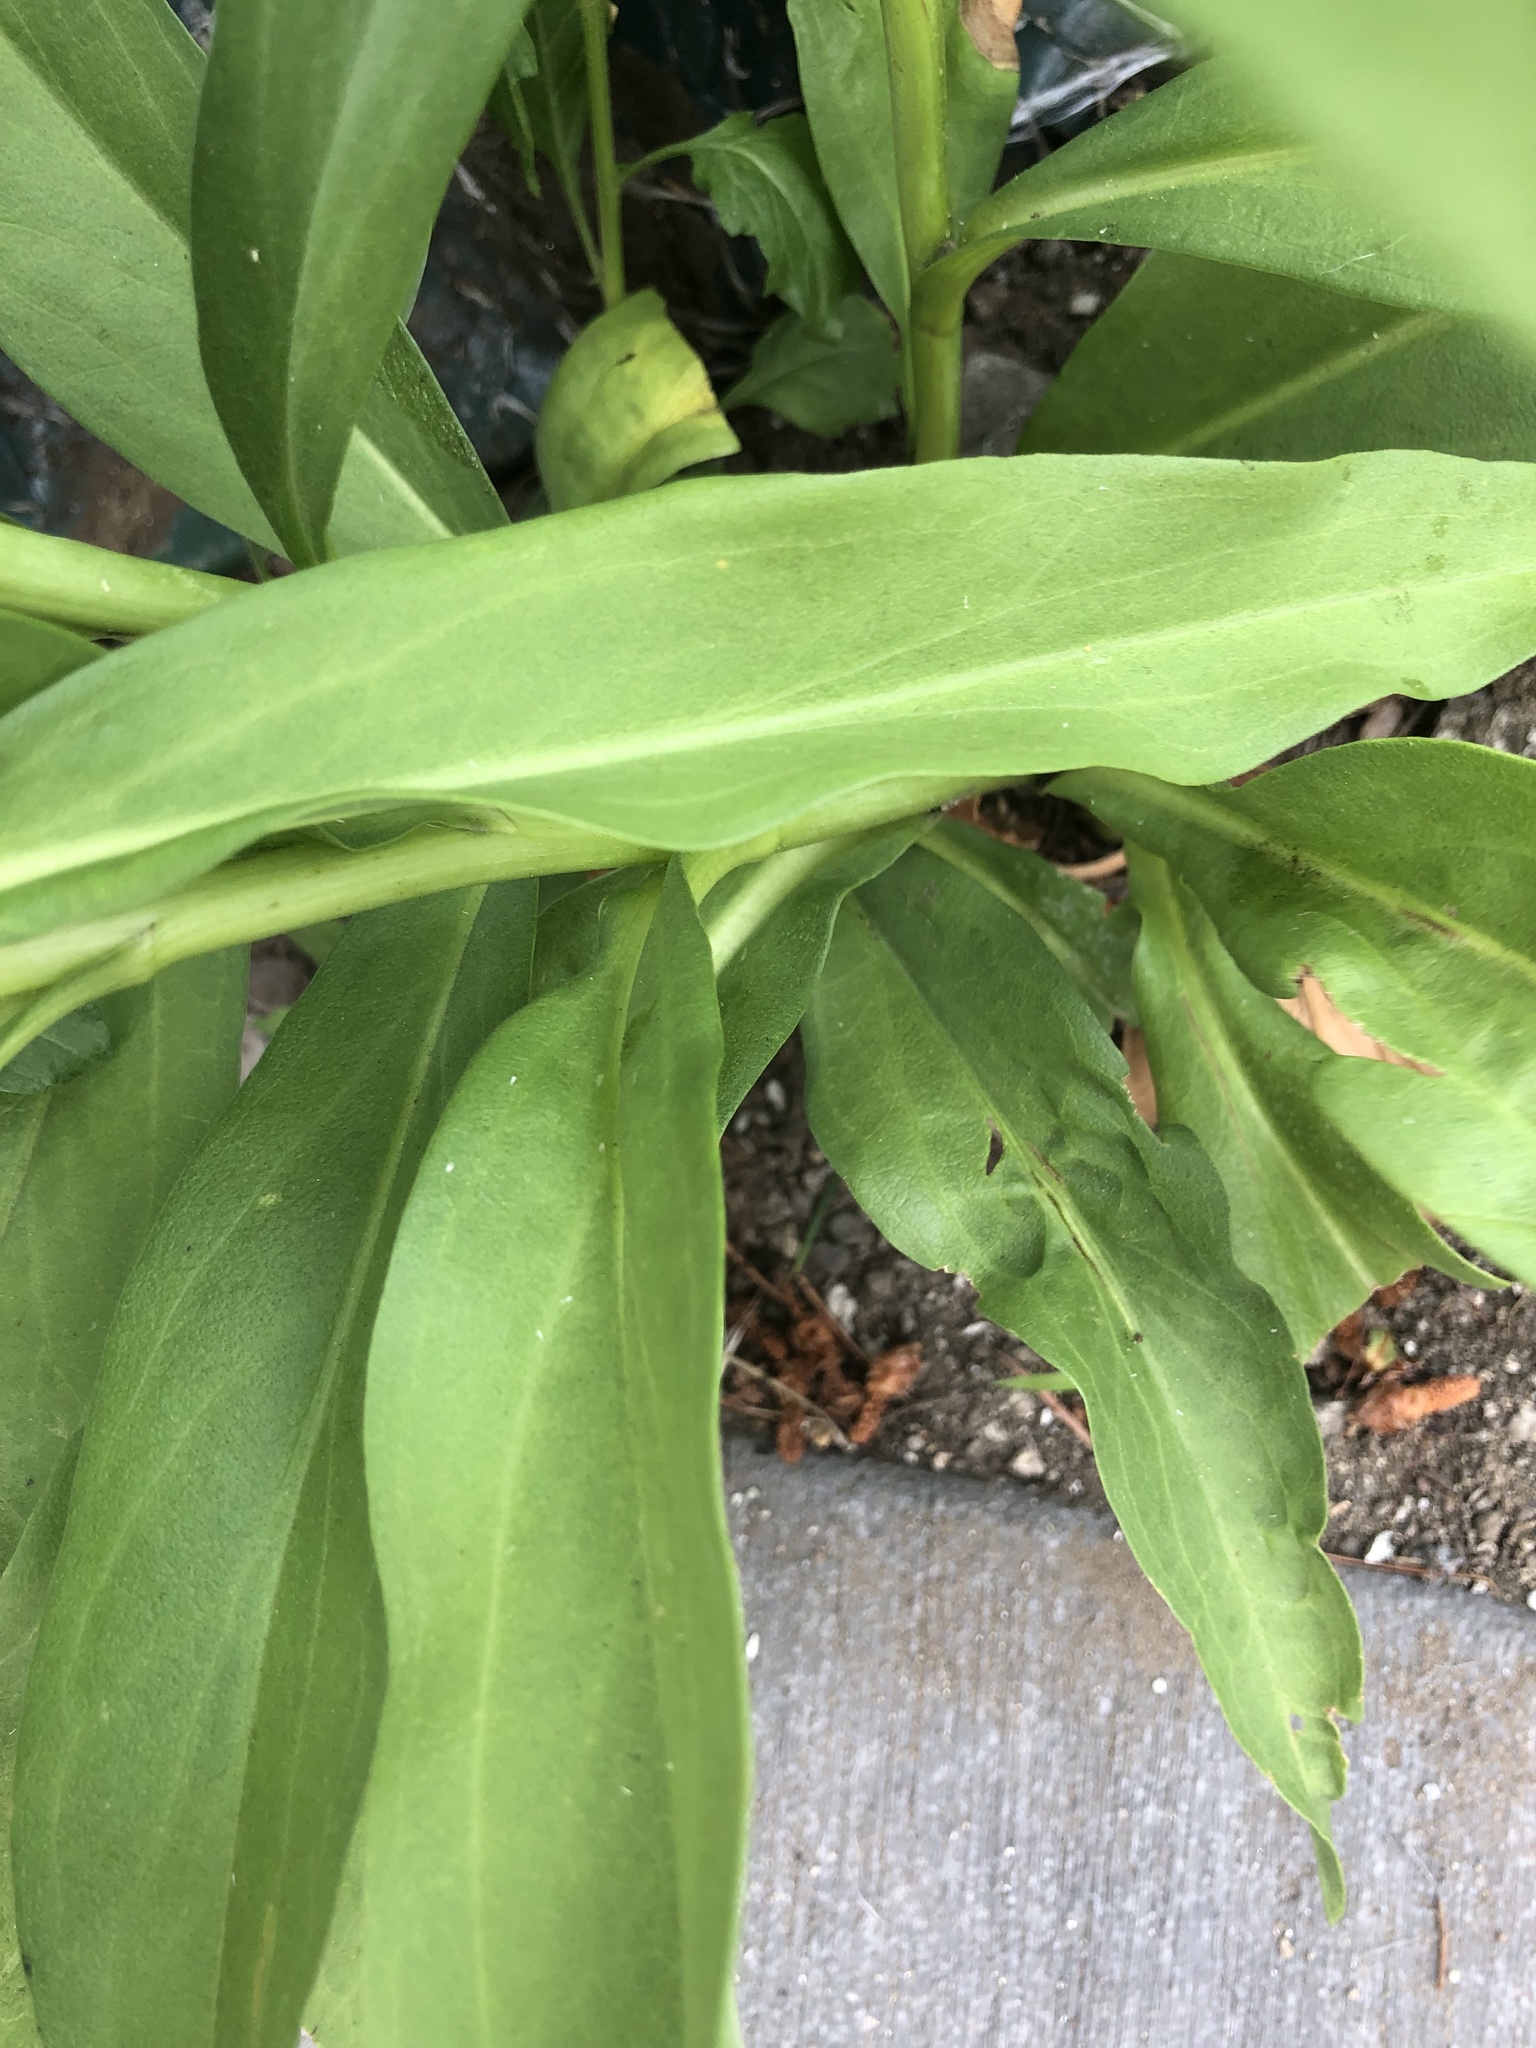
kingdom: Plantae
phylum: Tracheophyta
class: Magnoliopsida
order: Asterales
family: Asteraceae
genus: Solidago
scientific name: Solidago sempervirens
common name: Salt-marsh goldenrod
